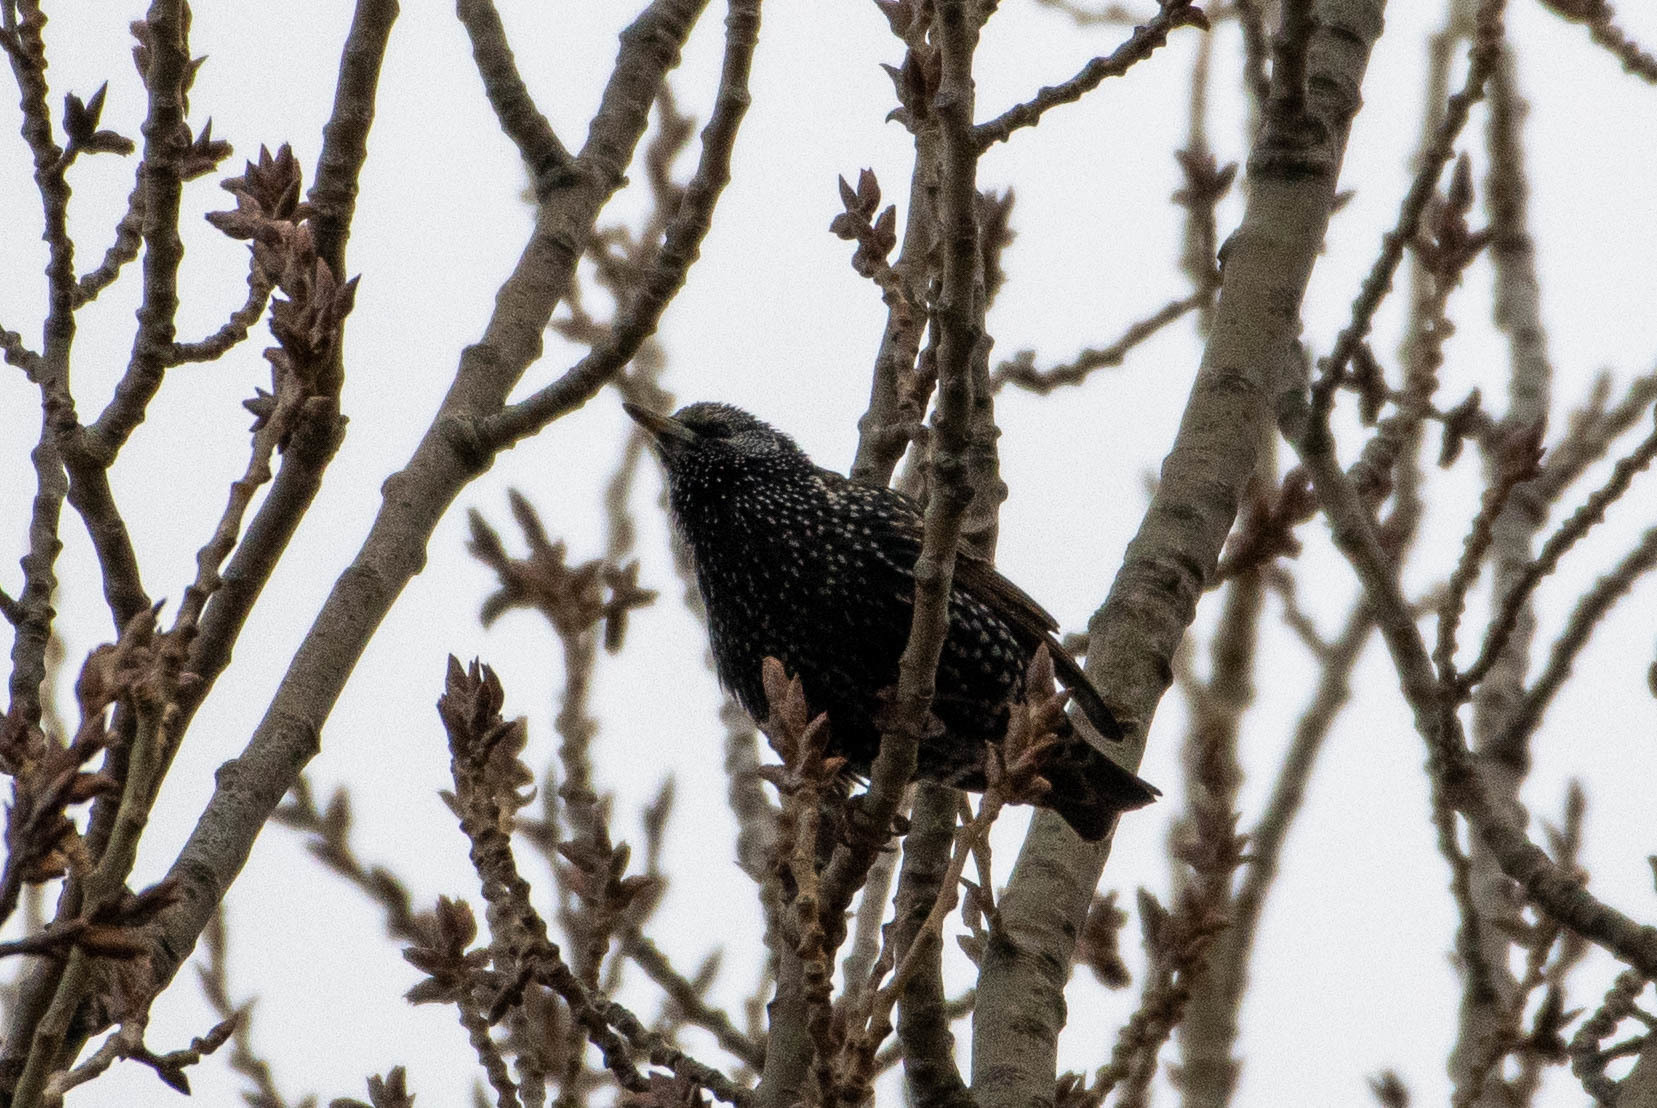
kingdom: Animalia
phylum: Chordata
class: Aves
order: Passeriformes
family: Sturnidae
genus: Sturnus
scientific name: Sturnus vulgaris
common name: Common starling
